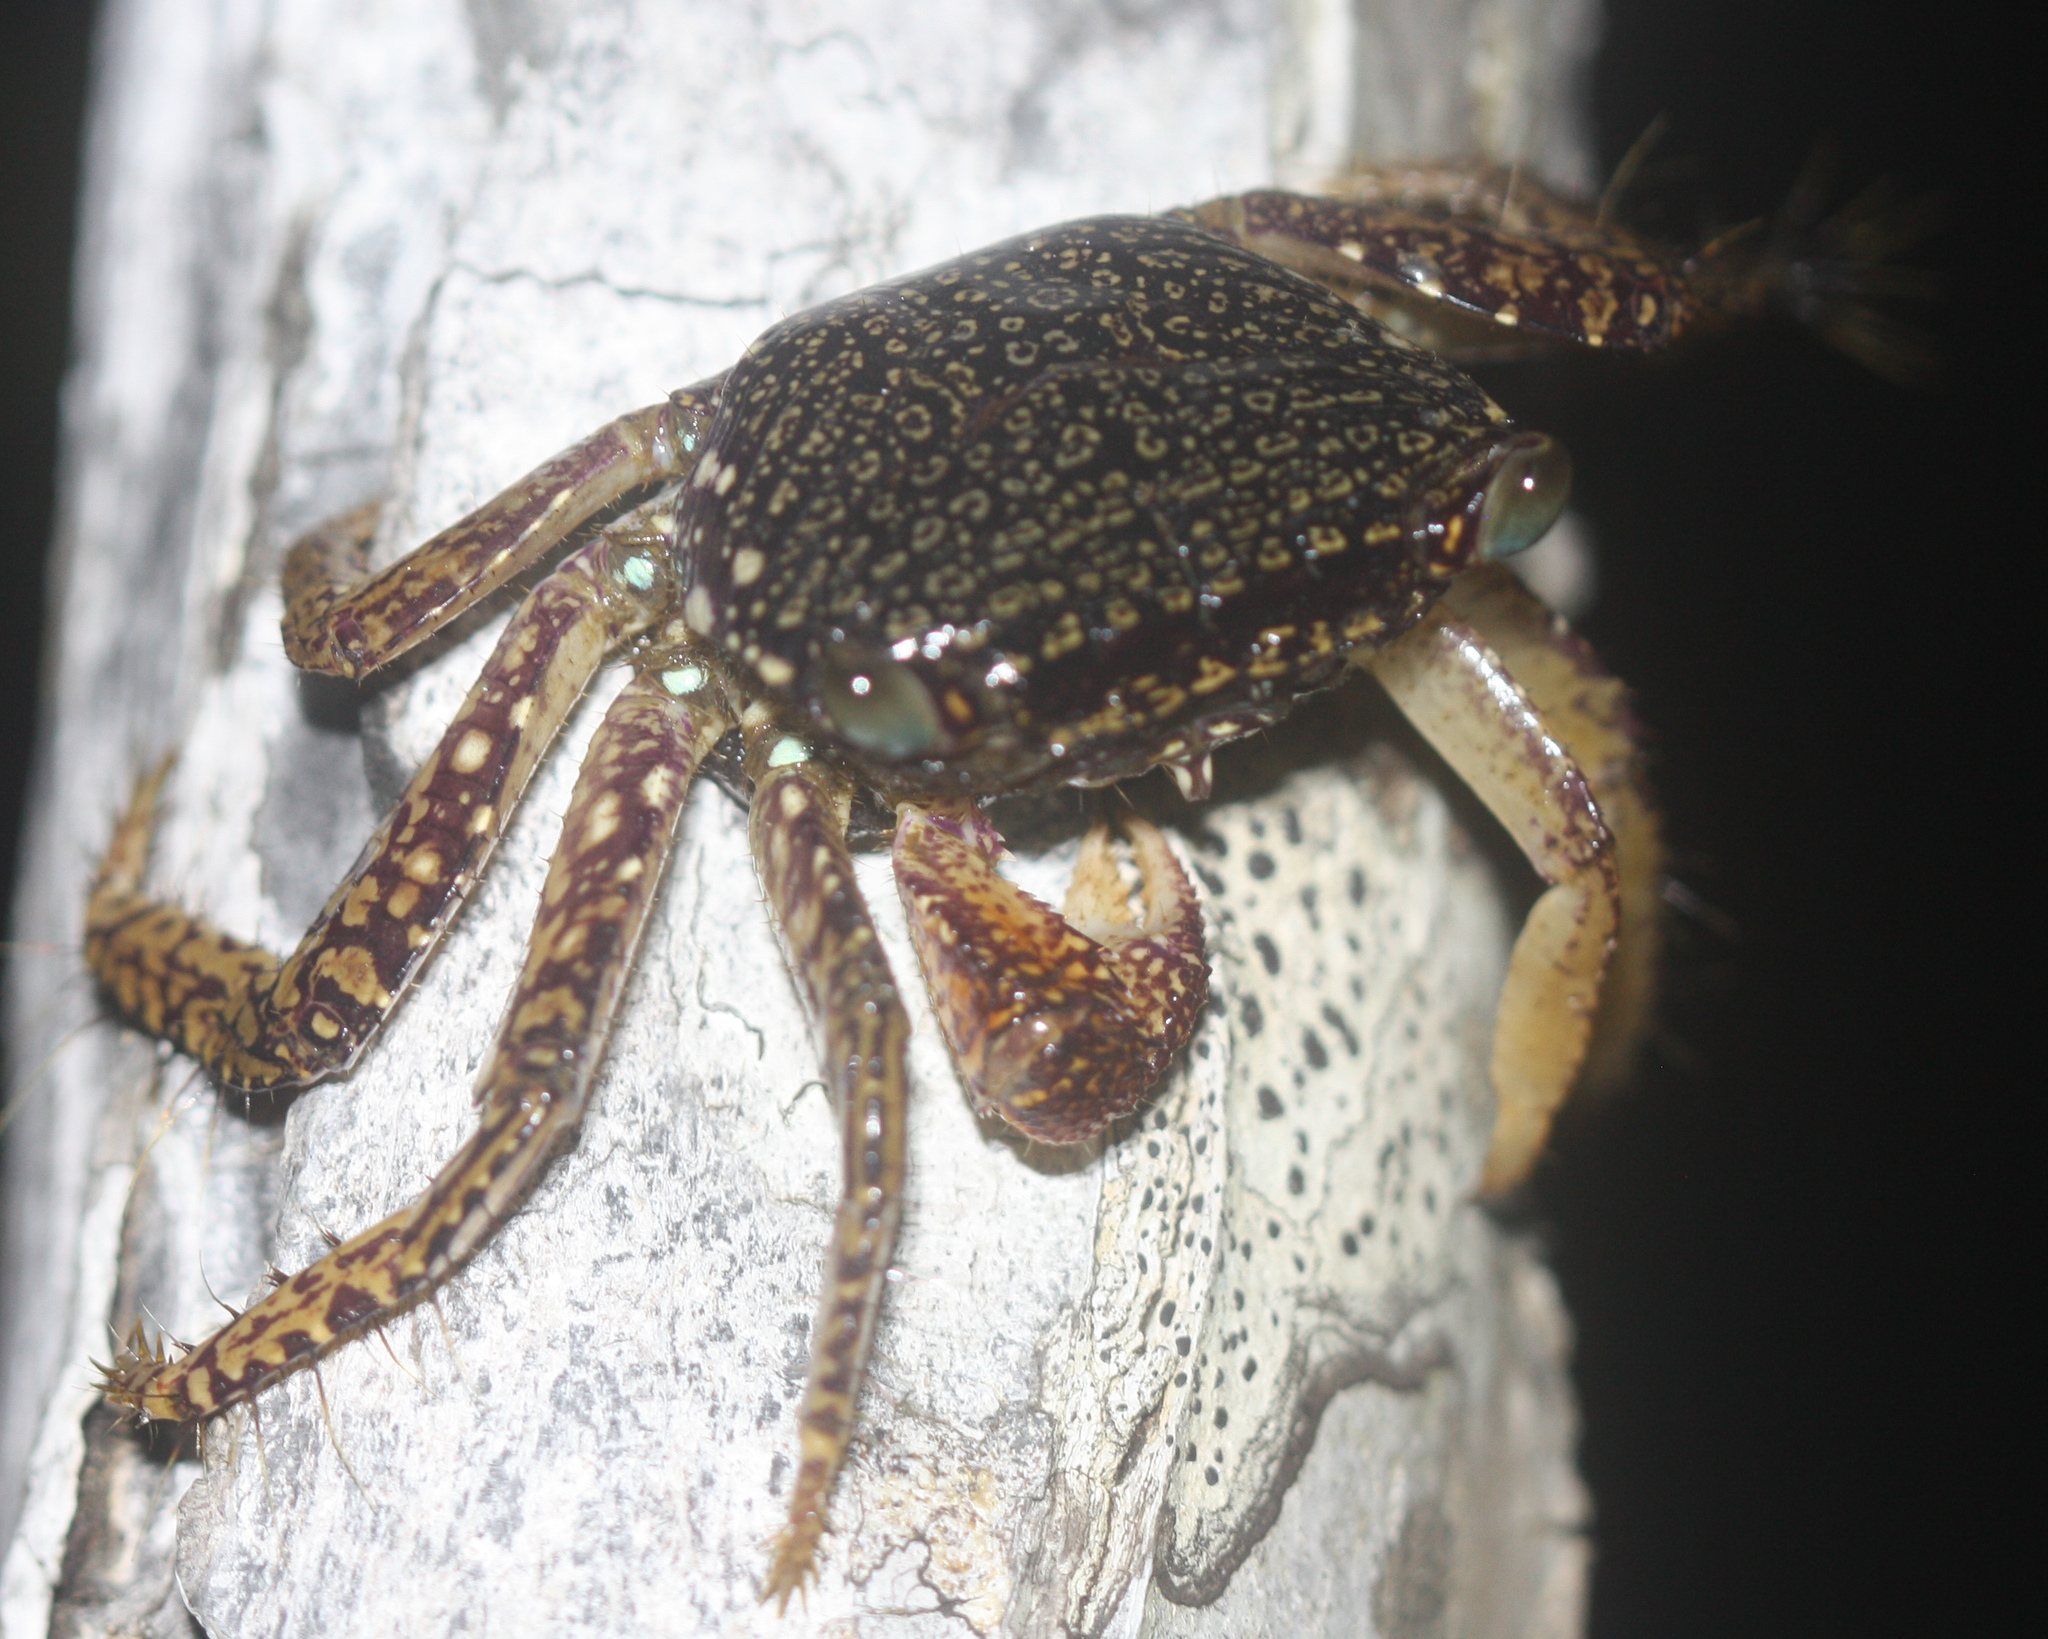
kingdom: Animalia
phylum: Arthropoda
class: Malacostraca
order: Decapoda
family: Grapsidae
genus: Goniopsis
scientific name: Goniopsis pulchra
